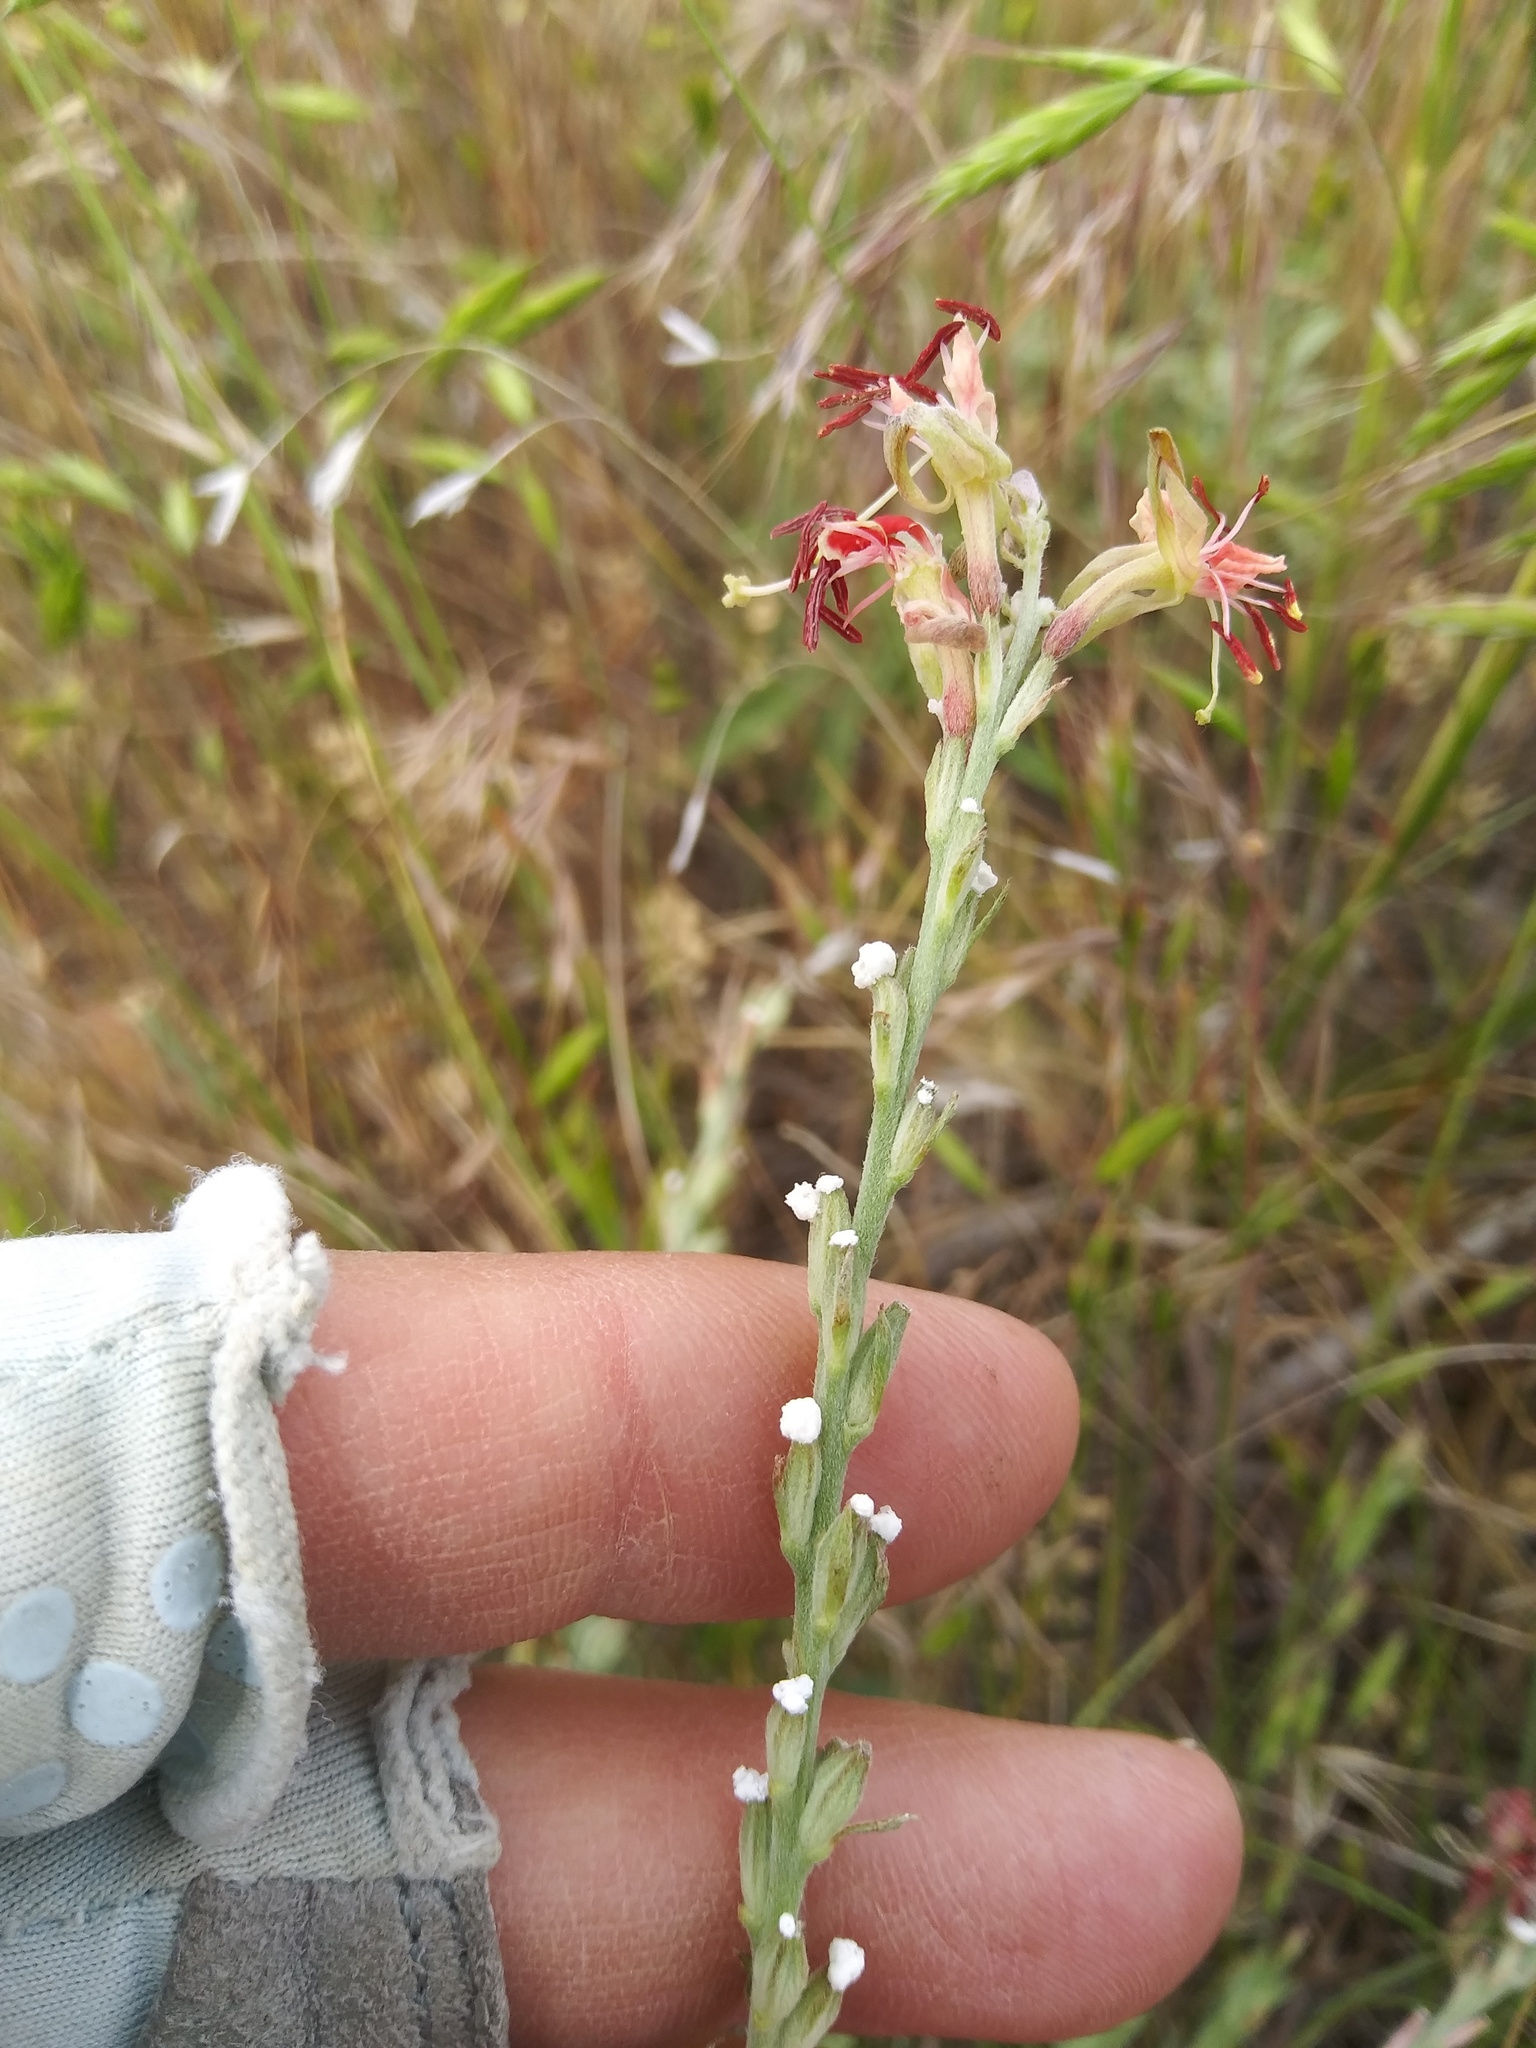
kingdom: Plantae
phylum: Tracheophyta
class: Magnoliopsida
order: Myrtales
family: Onagraceae
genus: Oenothera
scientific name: Oenothera suffrutescens
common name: Scarlet beeblossom
